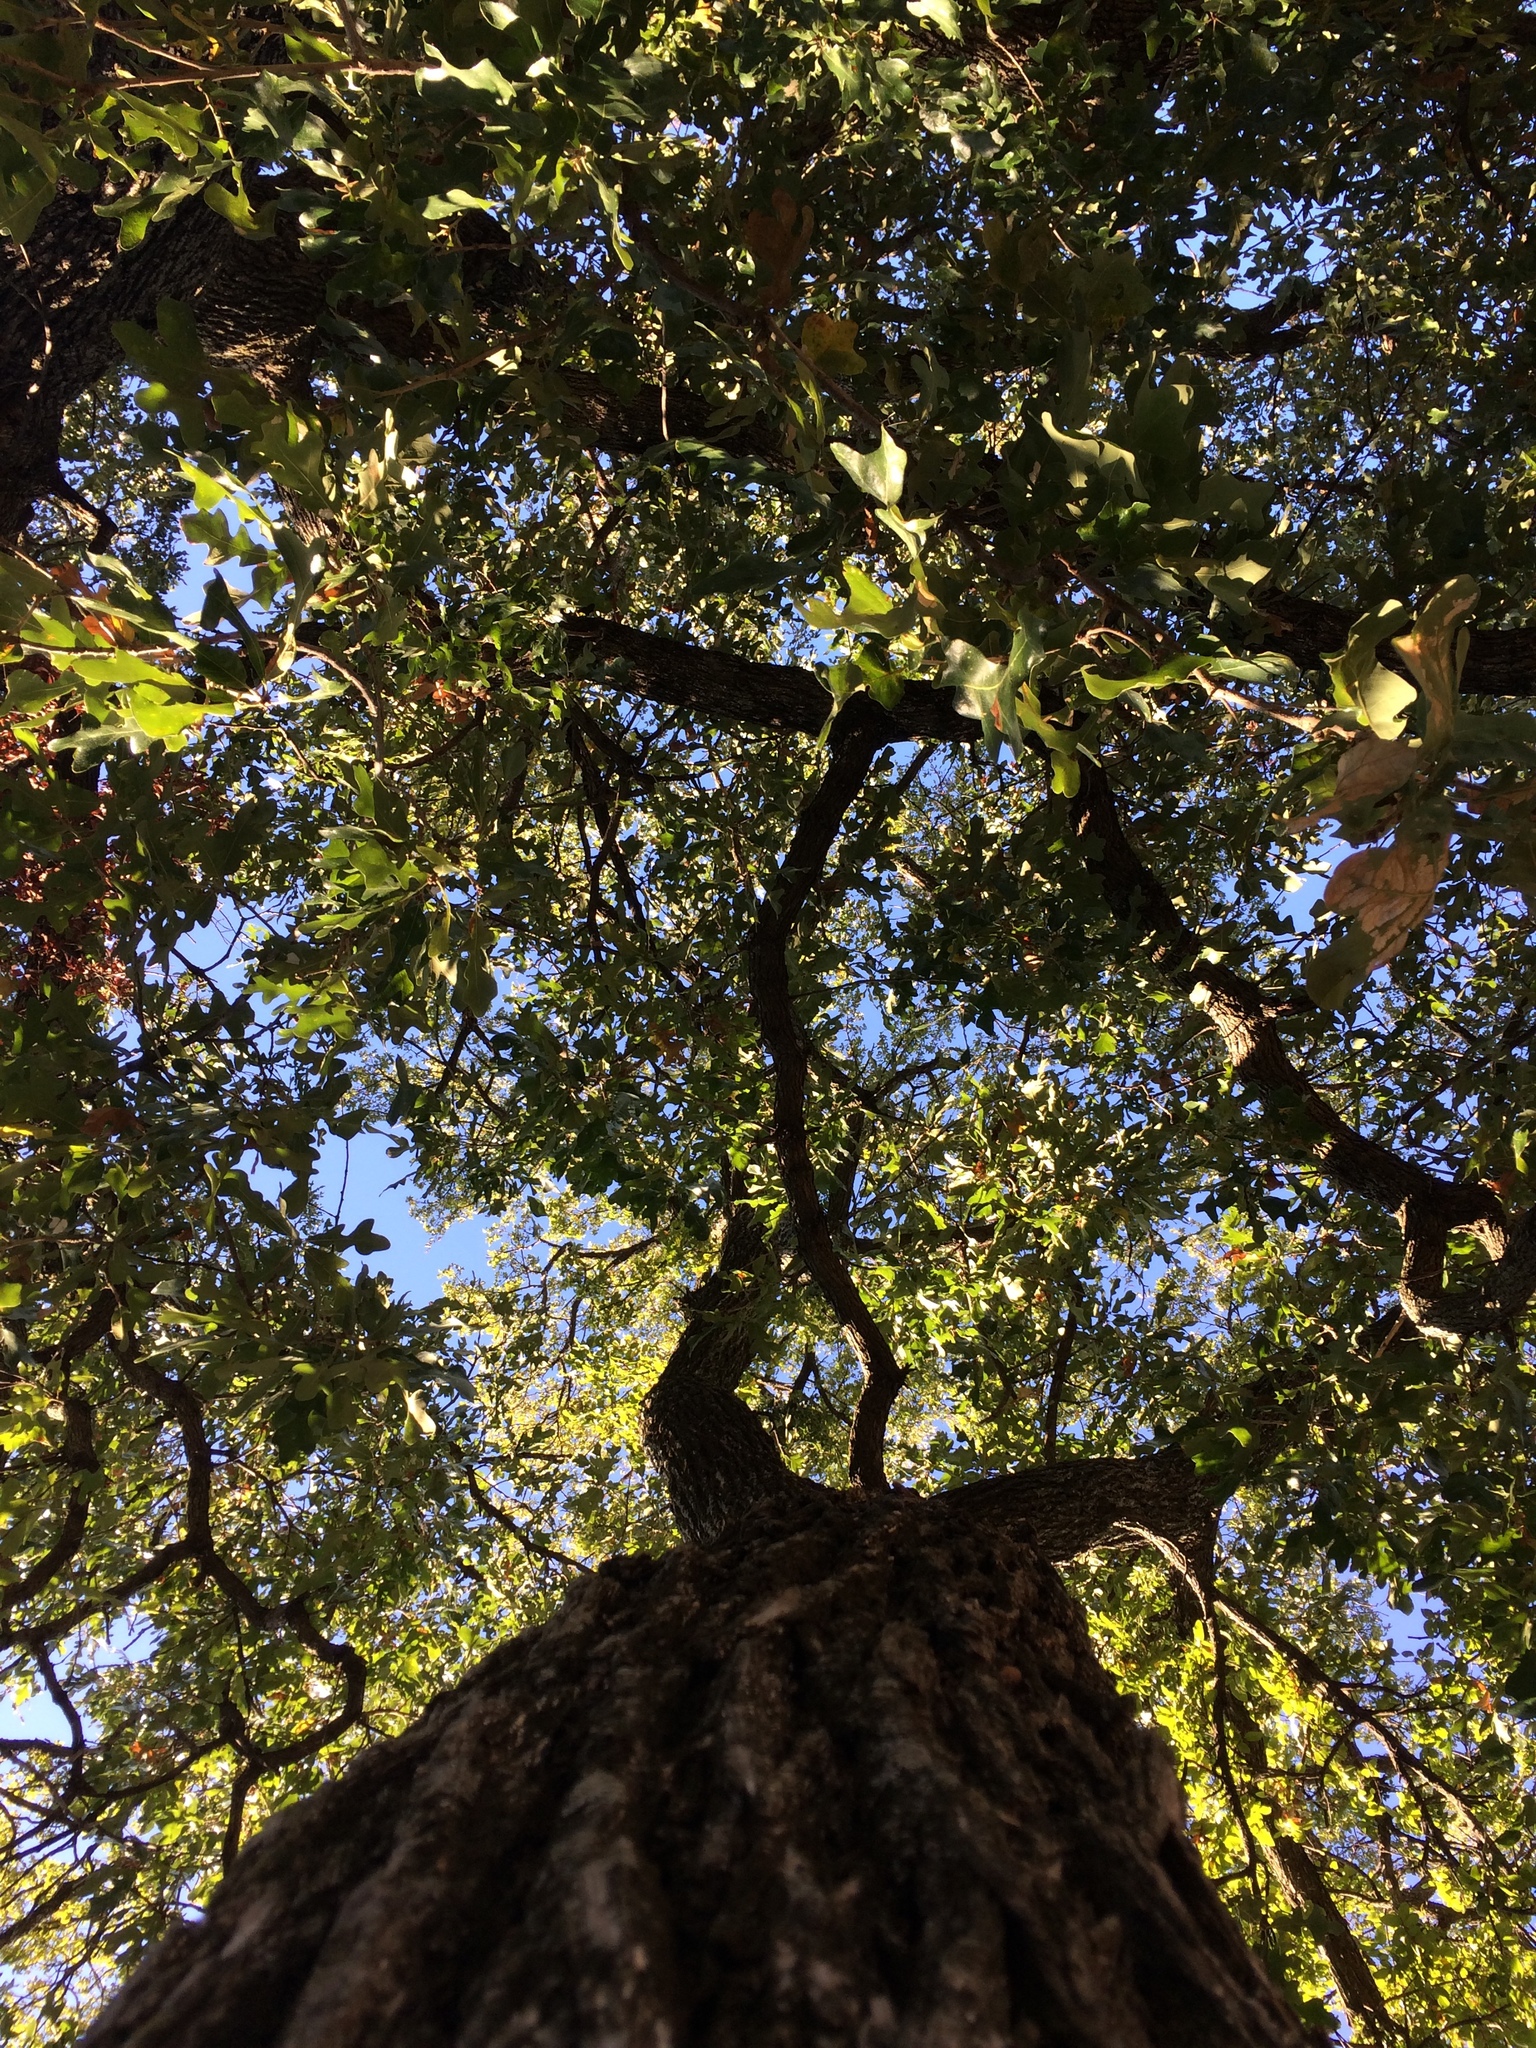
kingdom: Plantae
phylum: Tracheophyta
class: Magnoliopsida
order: Fagales
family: Fagaceae
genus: Quercus
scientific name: Quercus stellata
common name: Post oak
